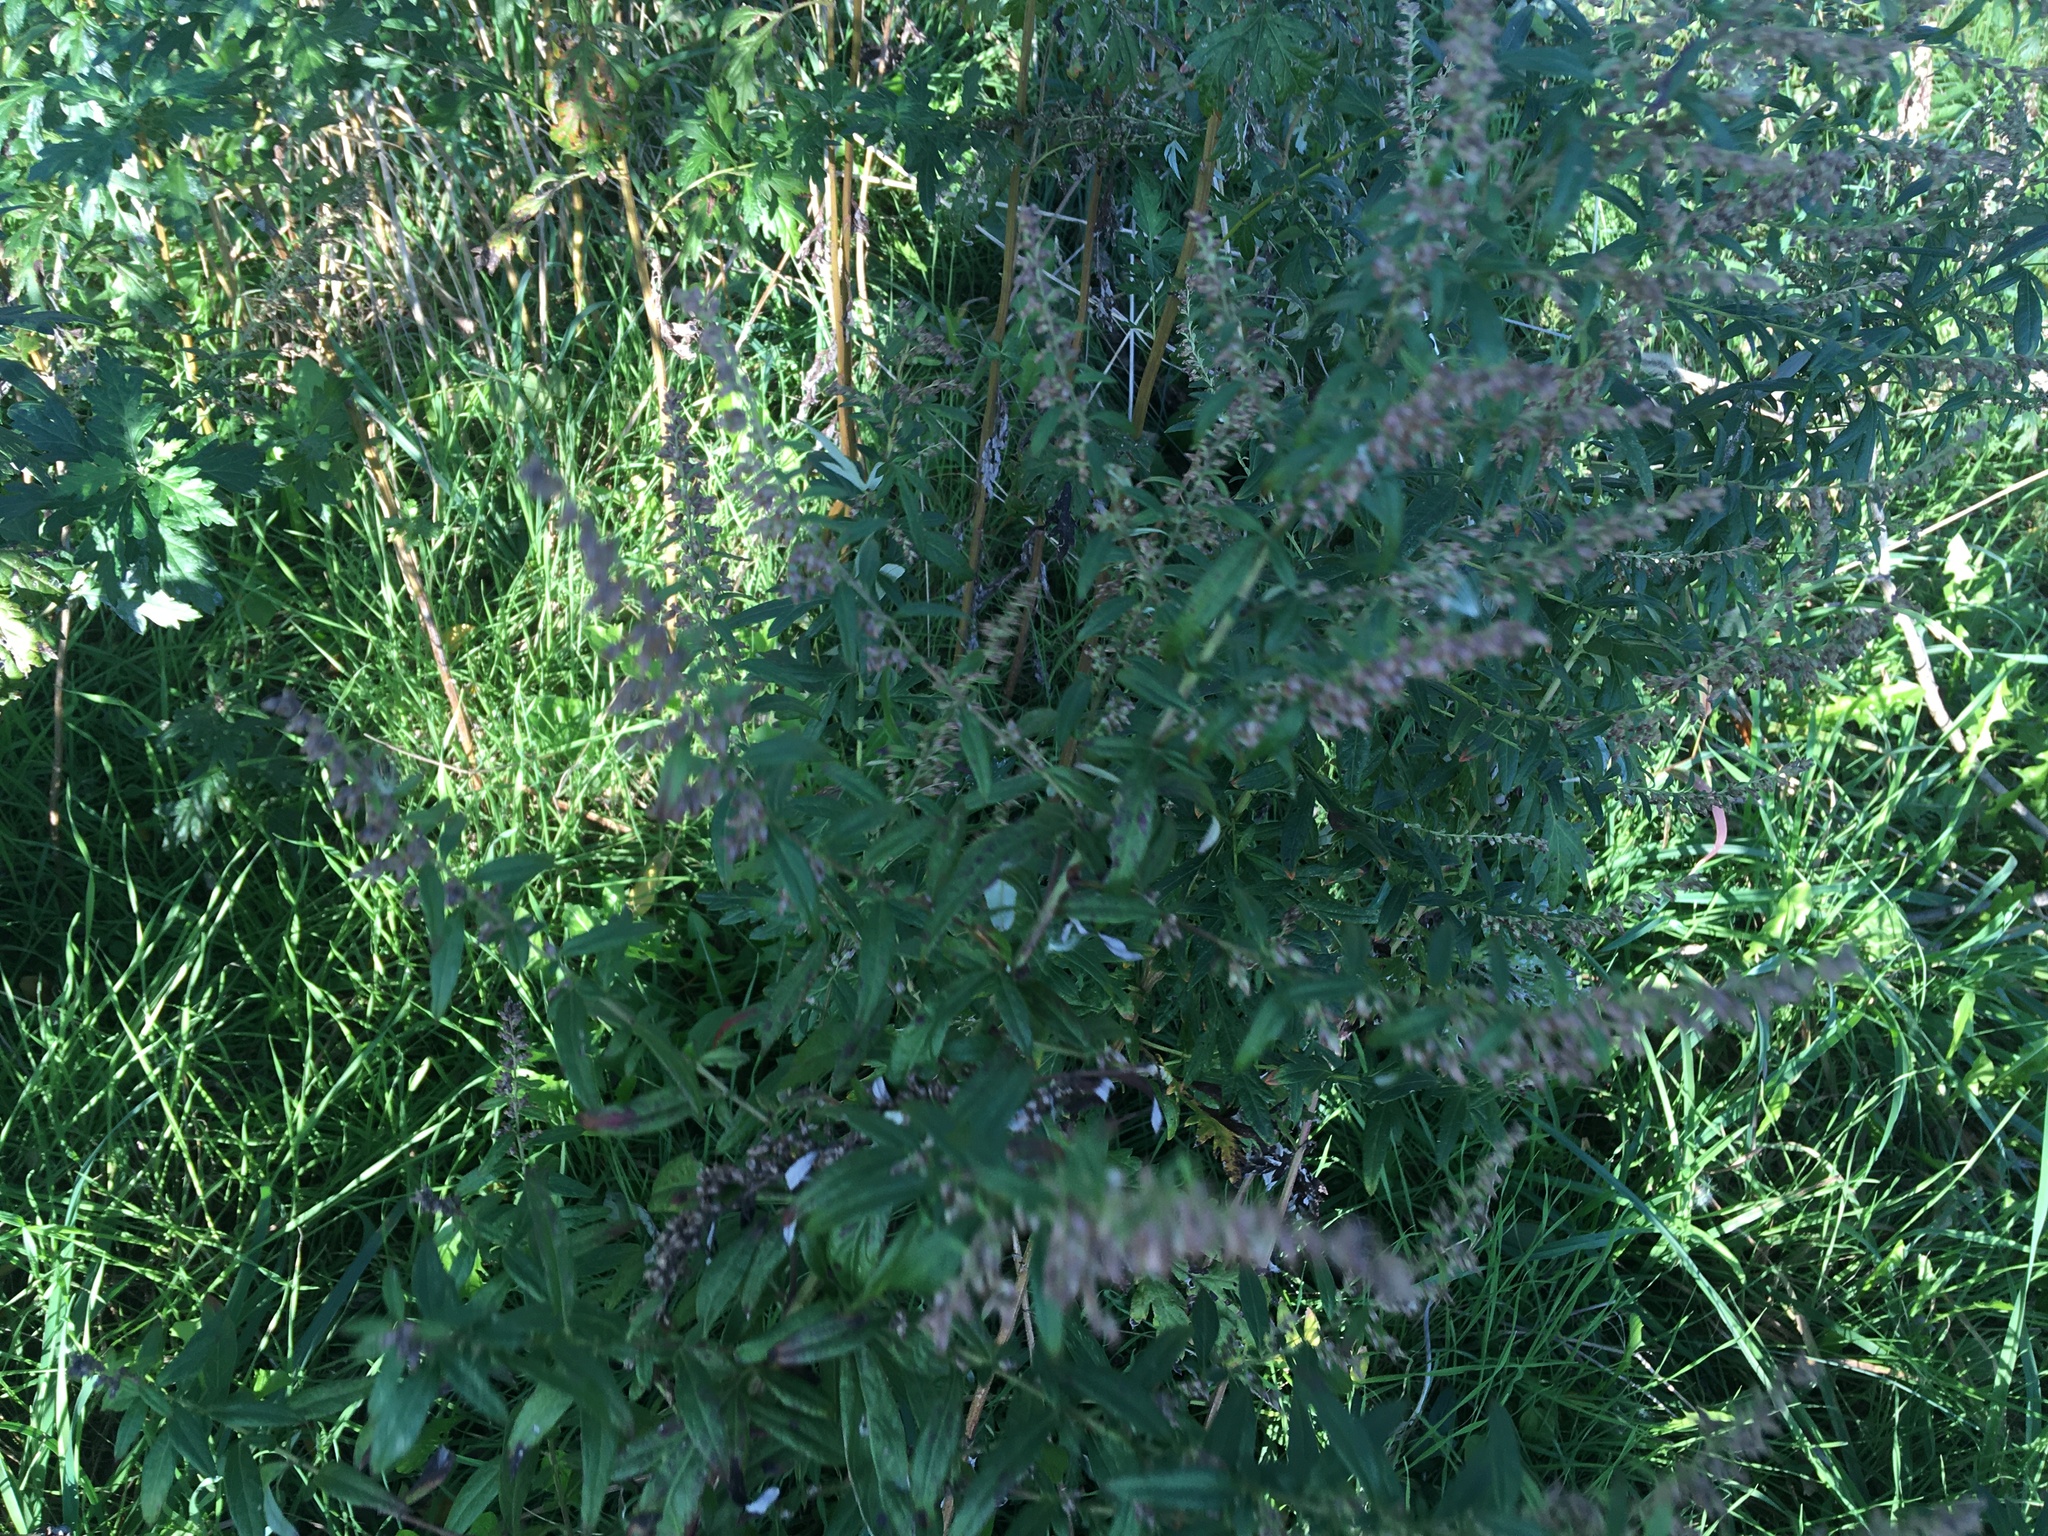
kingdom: Plantae
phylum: Tracheophyta
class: Magnoliopsida
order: Asterales
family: Asteraceae
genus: Artemisia
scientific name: Artemisia vulgaris
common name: Mugwort
